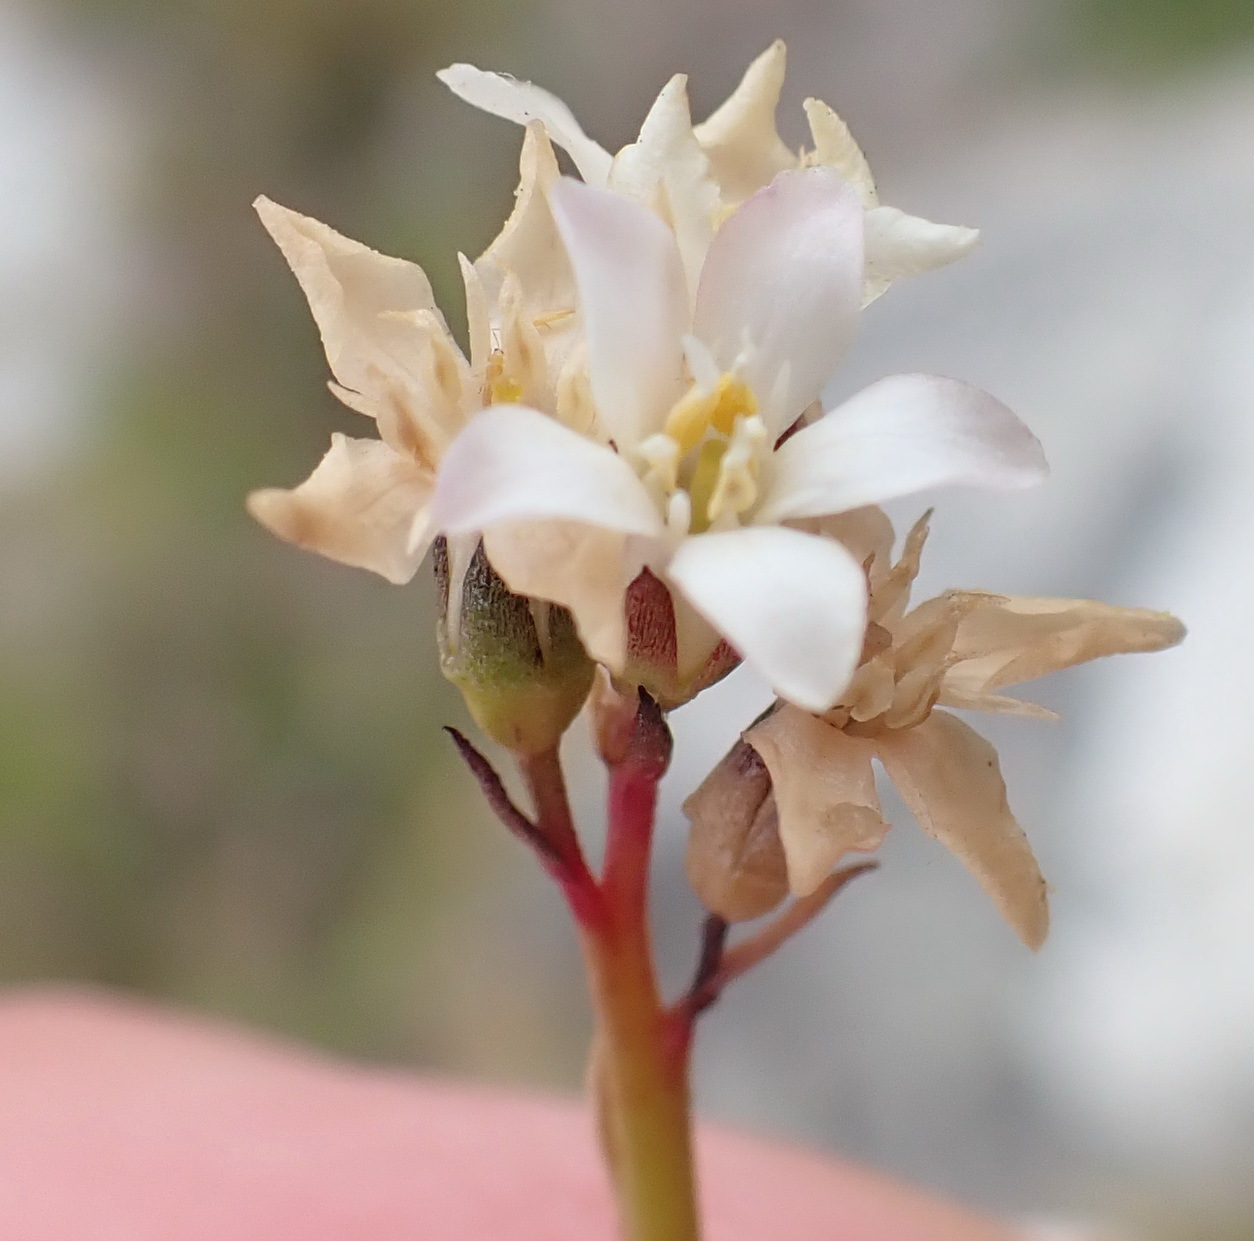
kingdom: Plantae
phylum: Tracheophyta
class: Magnoliopsida
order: Ericales
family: Primulaceae
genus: Samolus
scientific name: Samolus porosus
